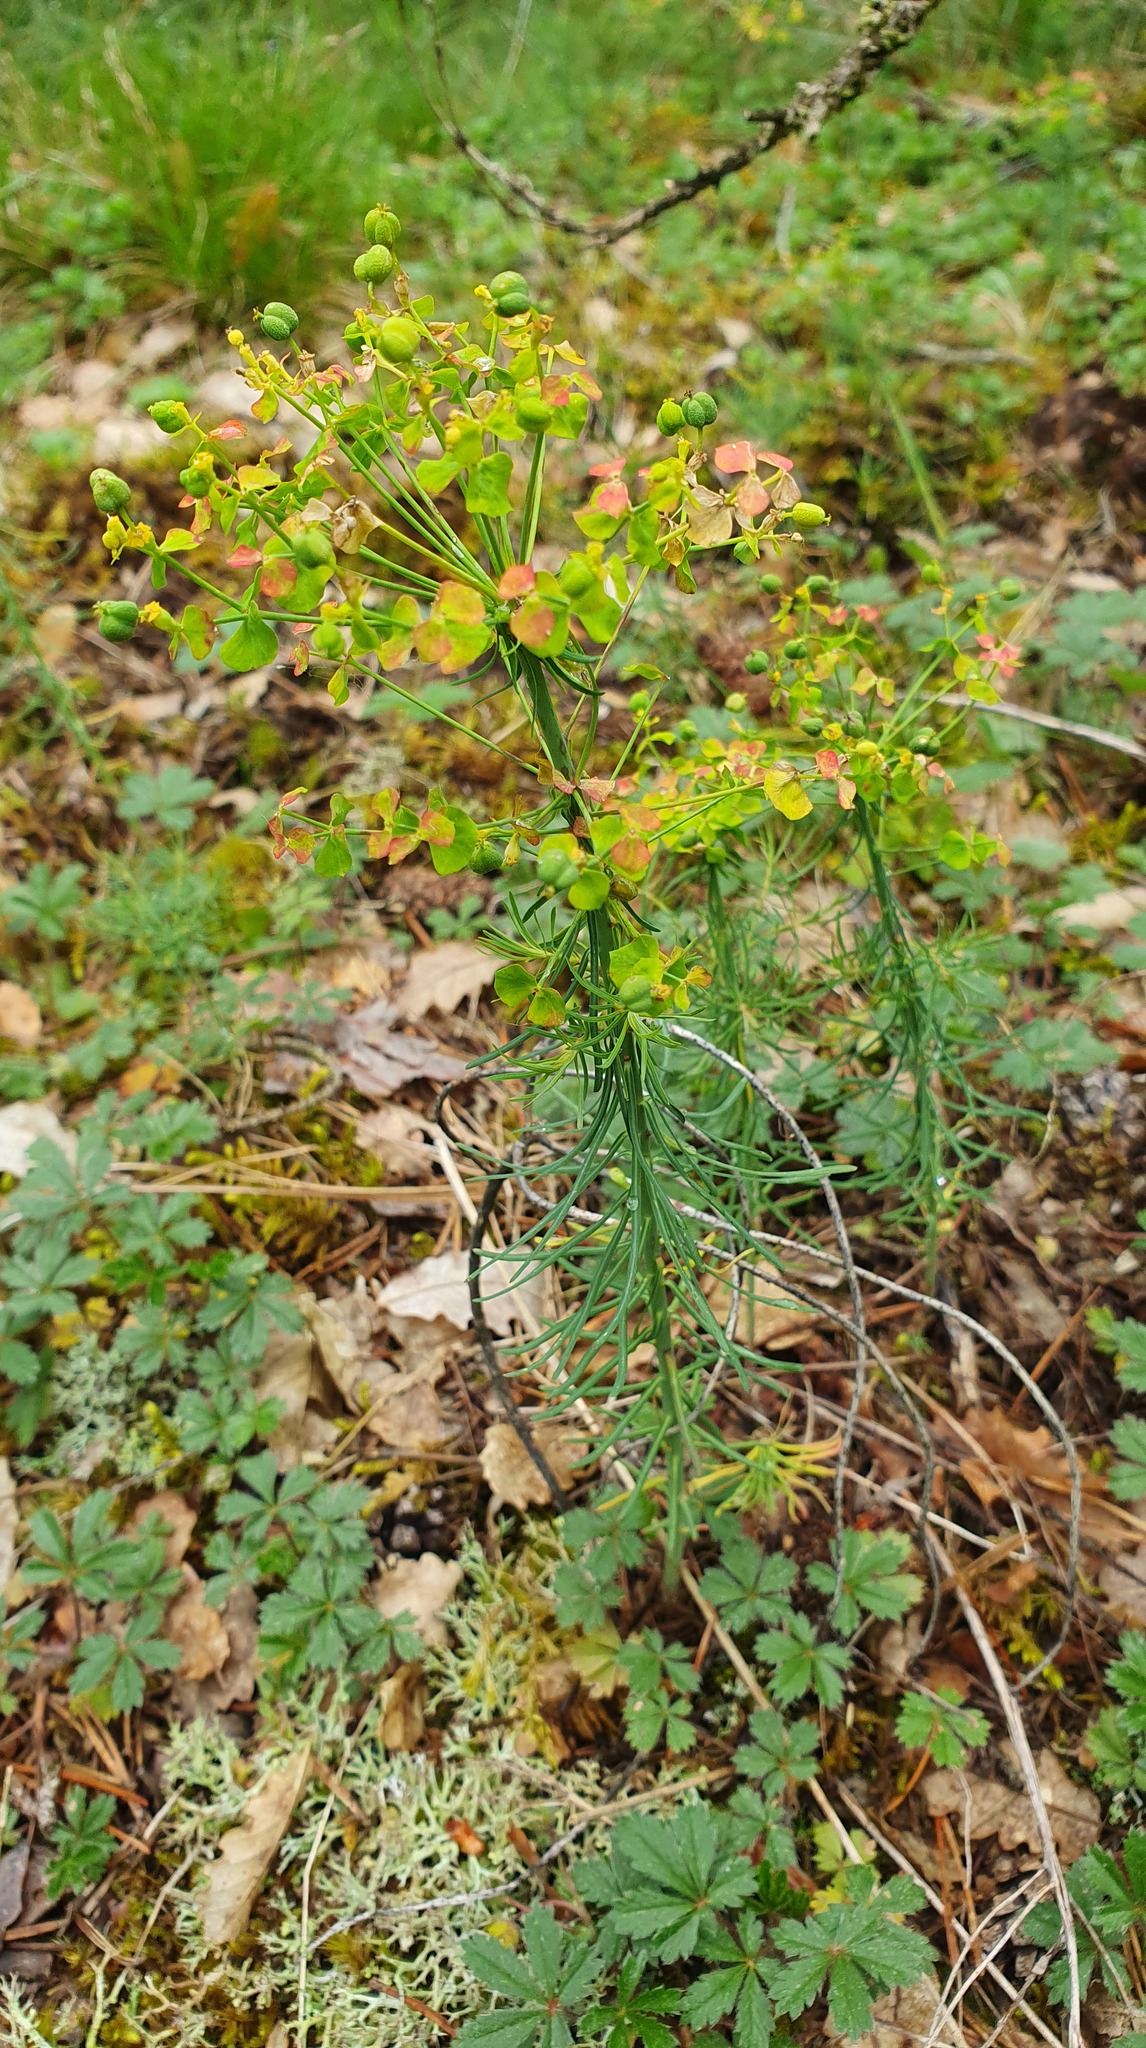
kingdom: Plantae
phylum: Tracheophyta
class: Magnoliopsida
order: Malpighiales
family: Euphorbiaceae
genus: Euphorbia
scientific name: Euphorbia cyparissias
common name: Cypress spurge
